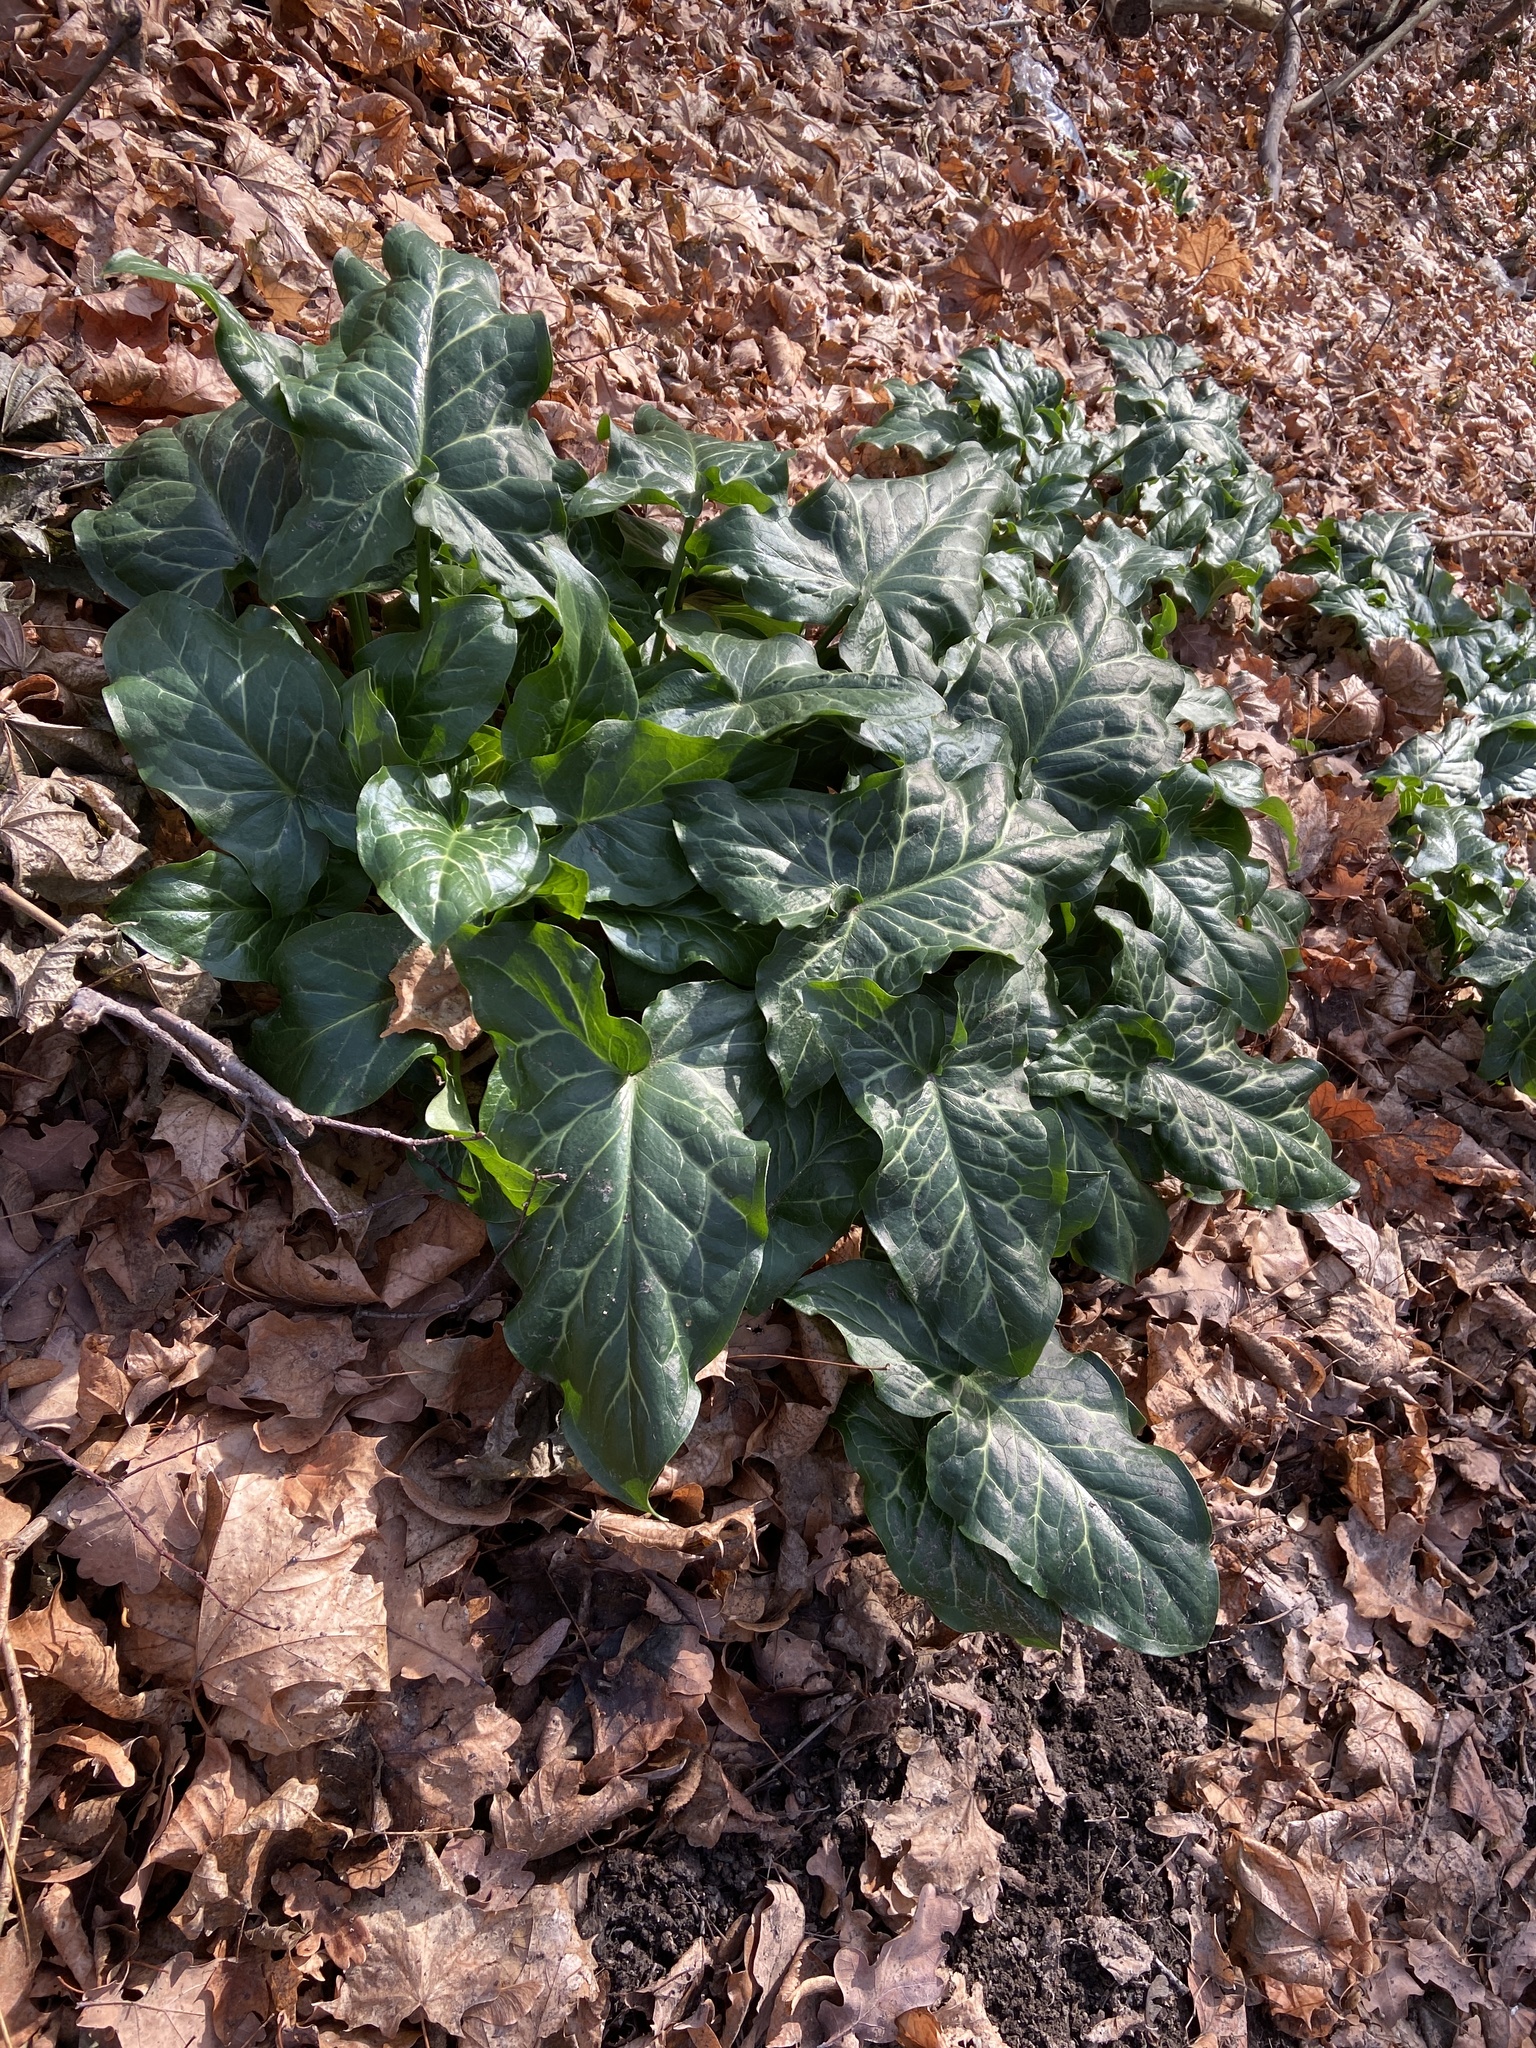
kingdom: Plantae
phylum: Tracheophyta
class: Liliopsida
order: Alismatales
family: Araceae
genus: Arum
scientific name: Arum italicum
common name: Italian lords-and-ladies
